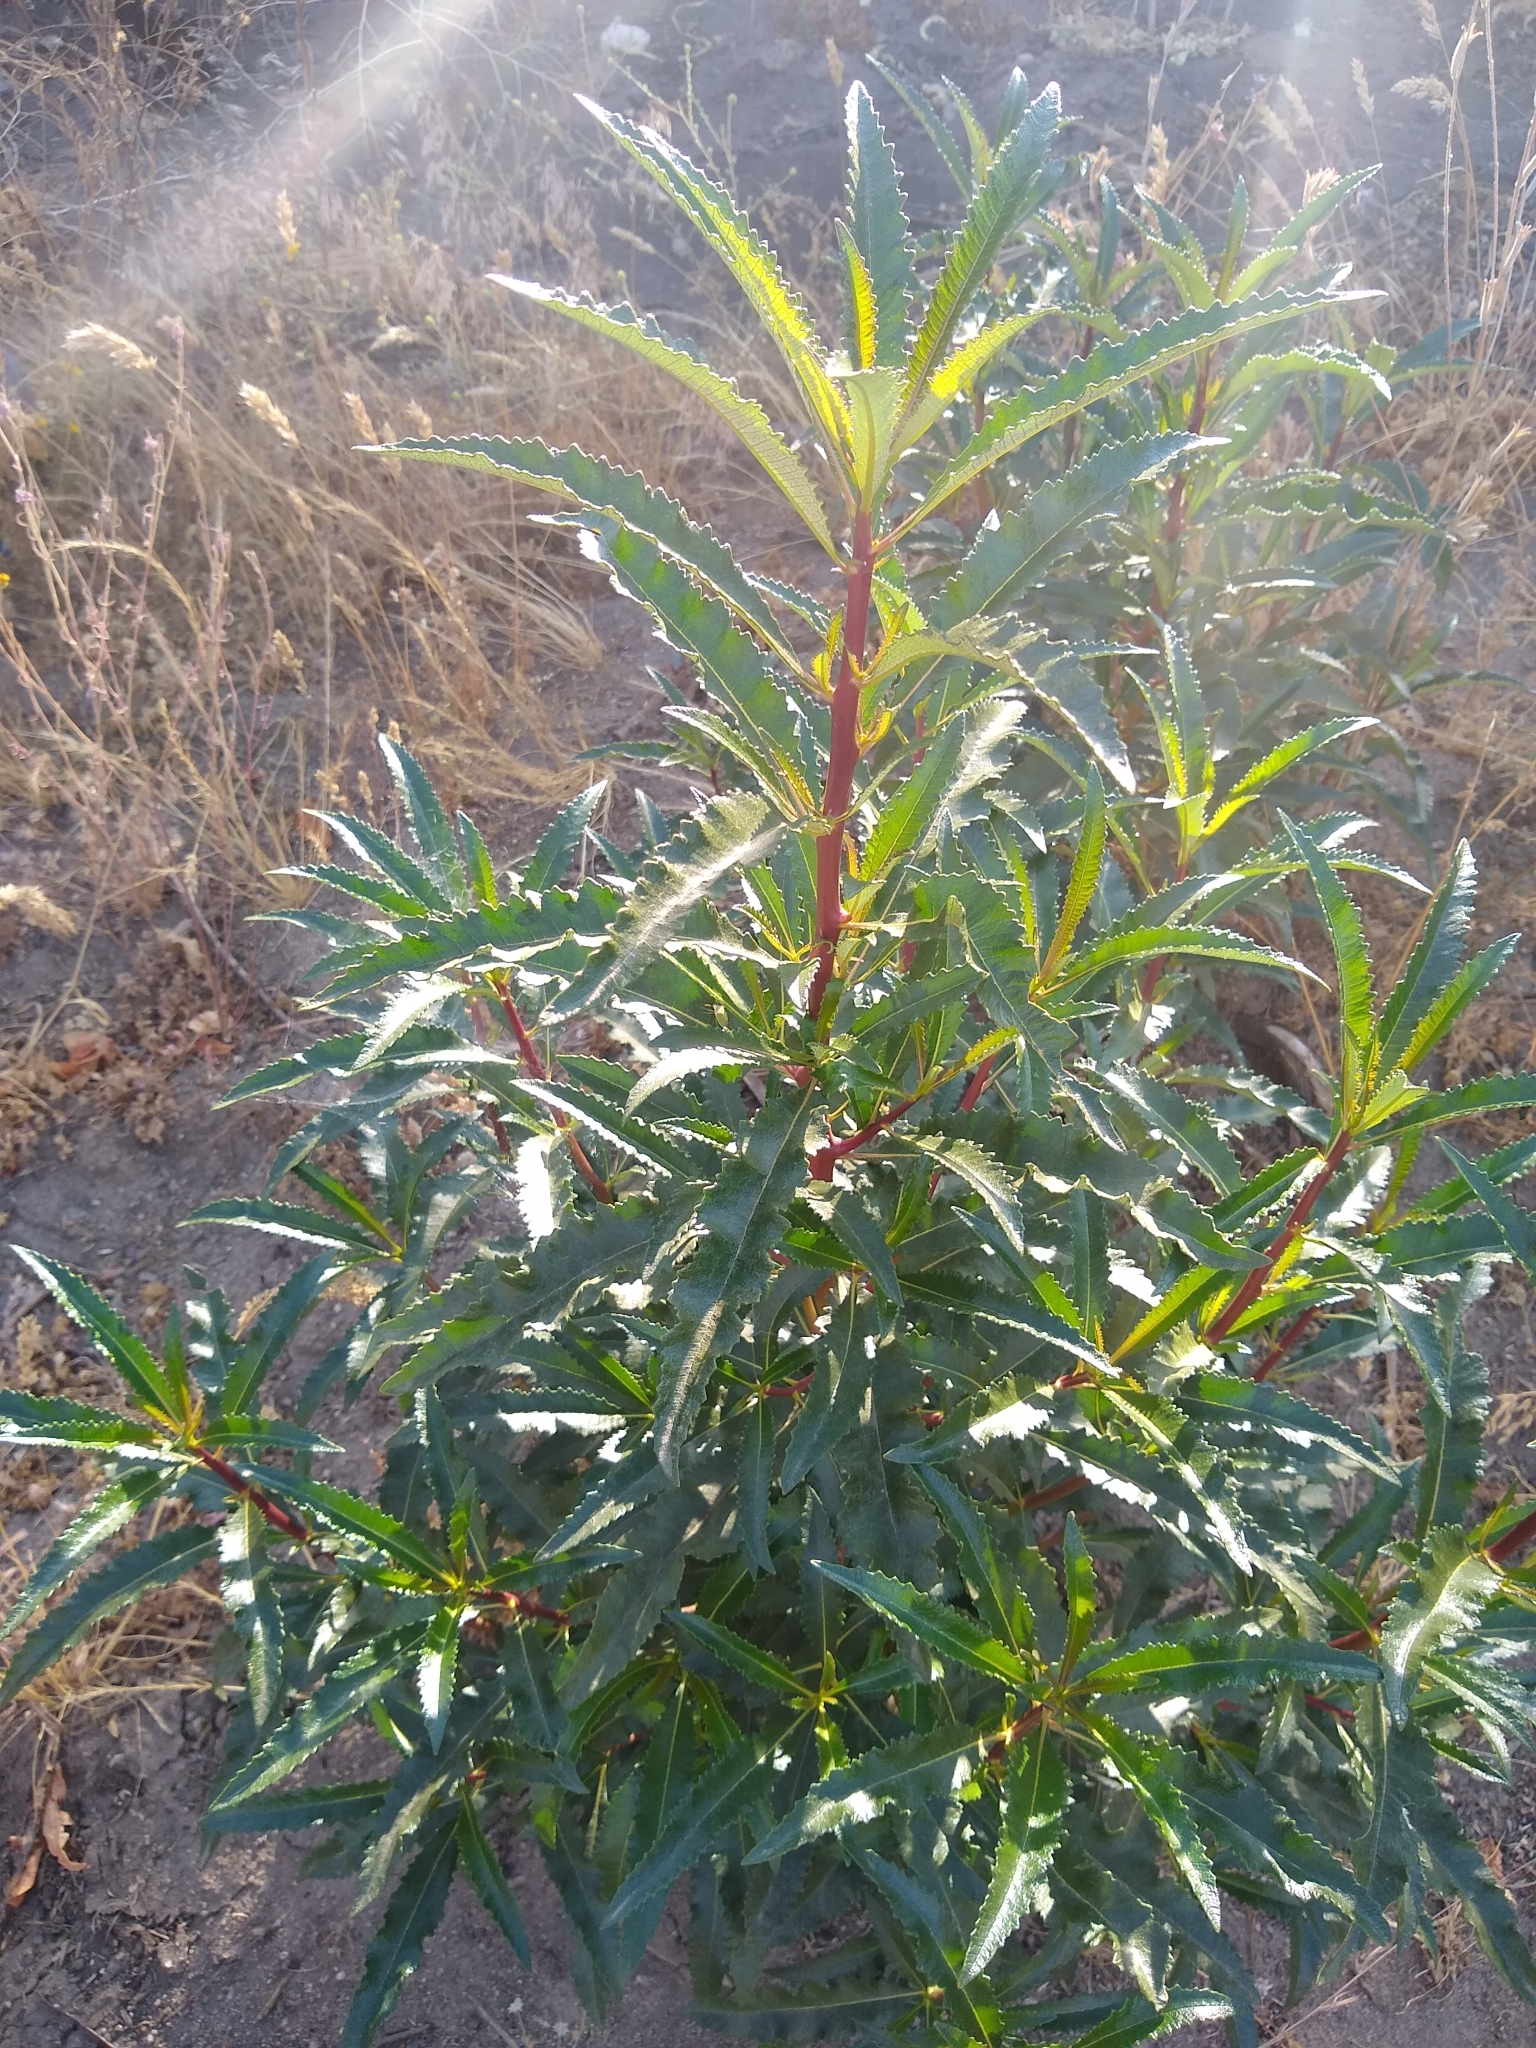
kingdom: Plantae
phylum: Tracheophyta
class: Magnoliopsida
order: Boraginales
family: Namaceae
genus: Eriodictyon
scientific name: Eriodictyon californicum
